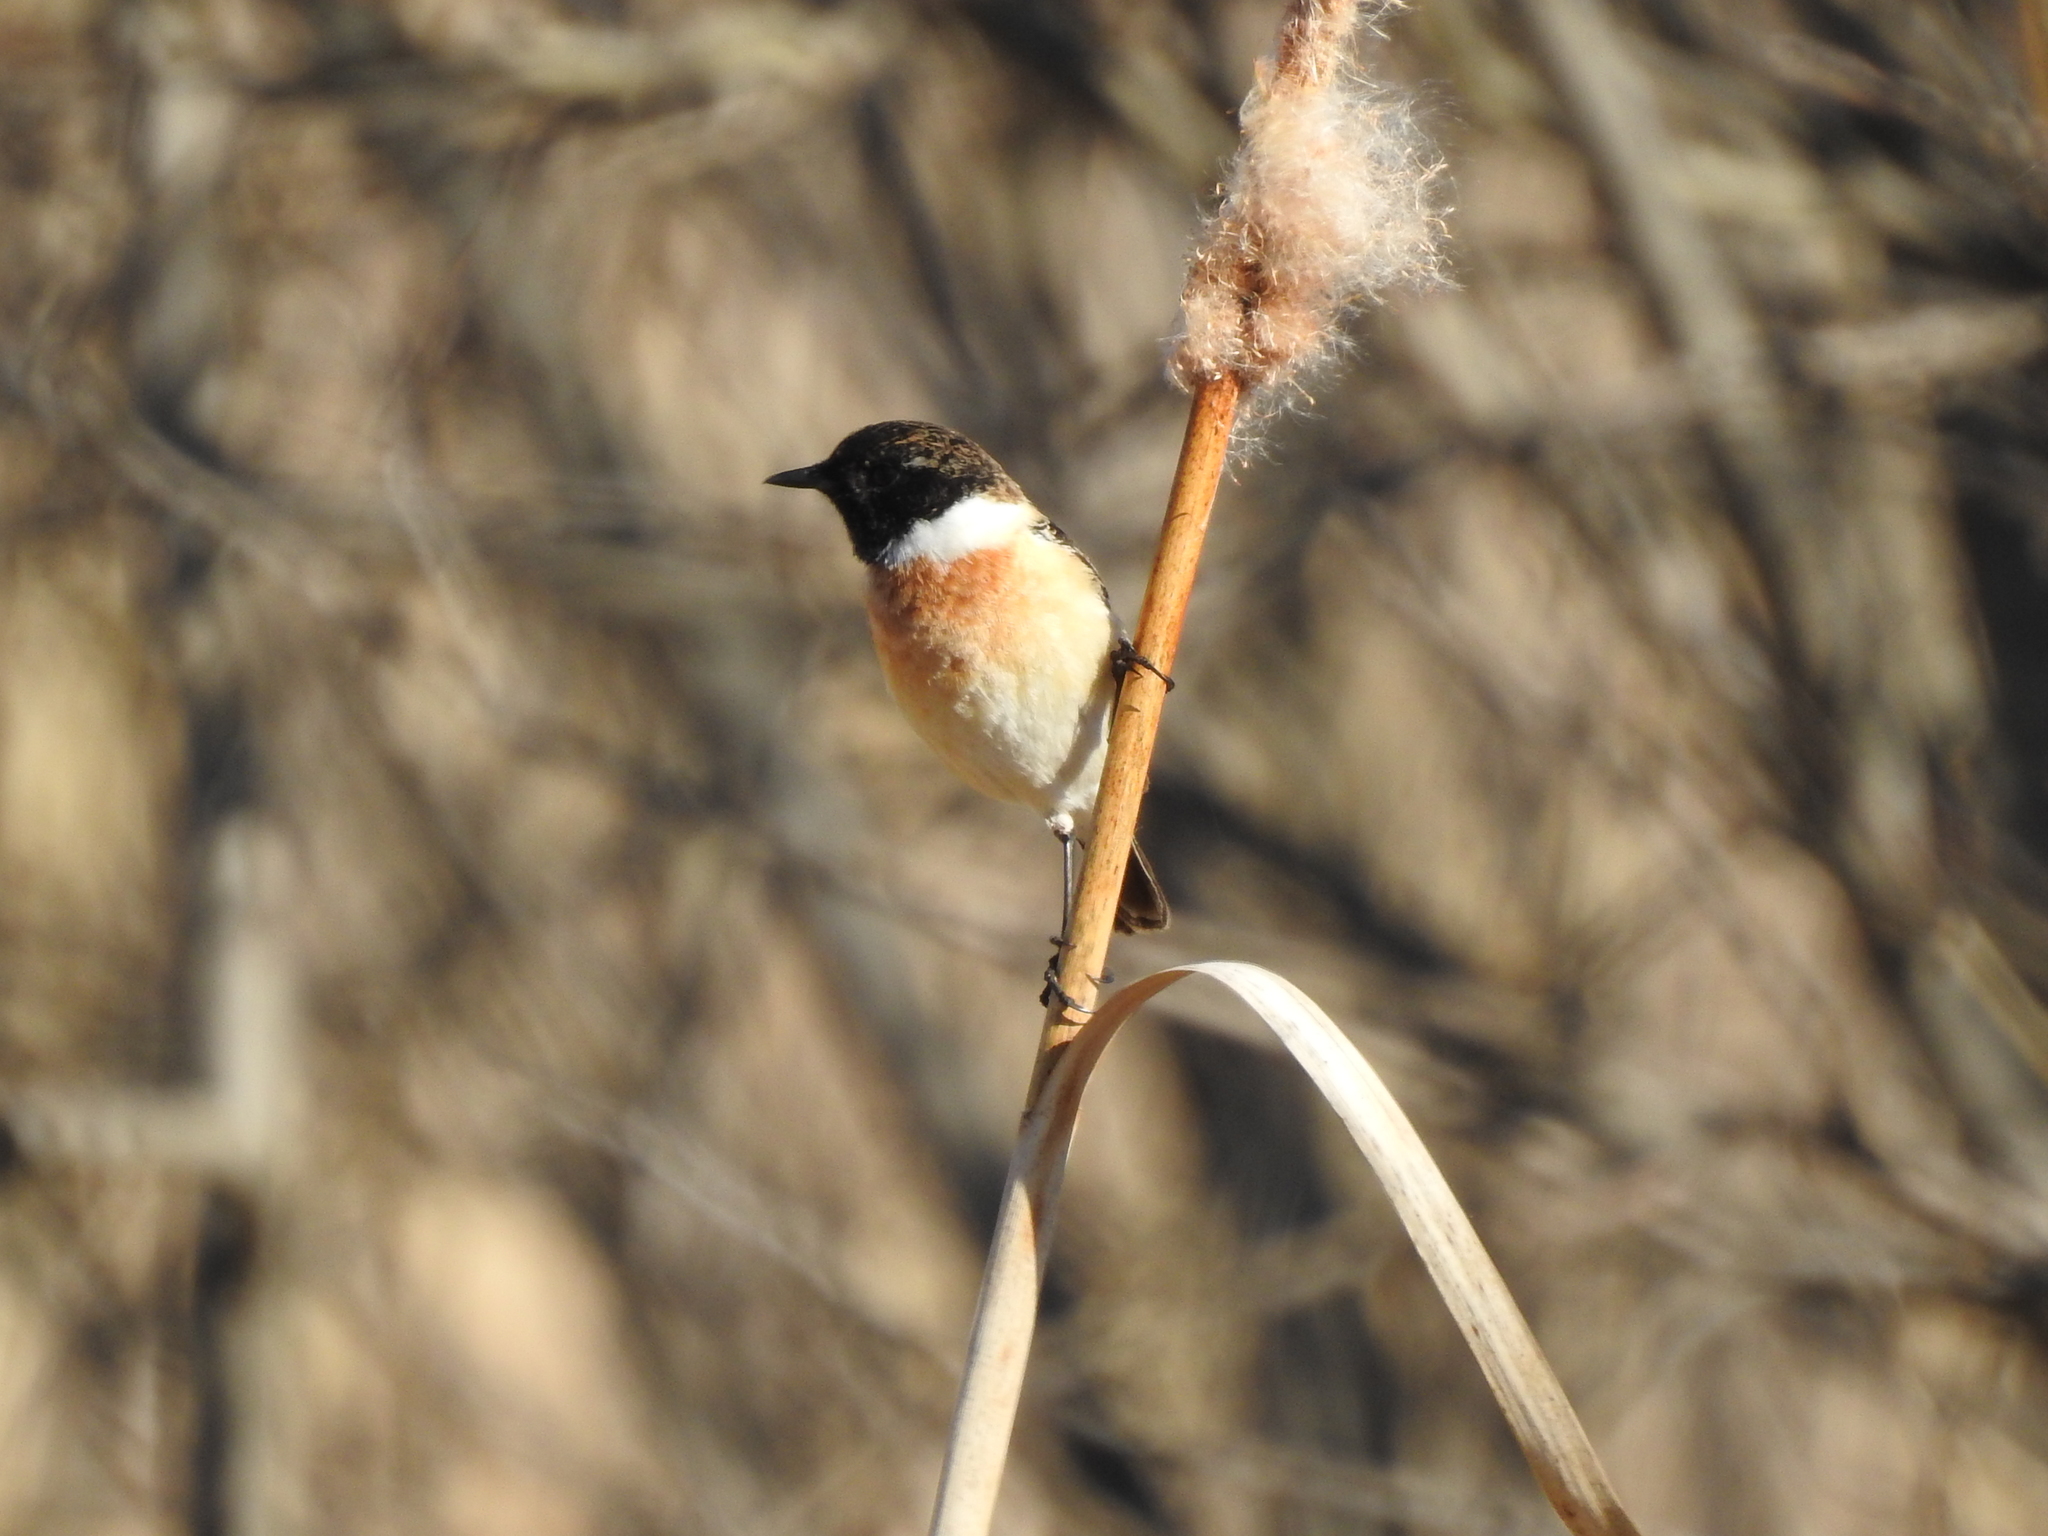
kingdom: Animalia
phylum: Chordata
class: Aves
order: Passeriformes
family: Muscicapidae
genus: Saxicola
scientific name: Saxicola maurus
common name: Siberian stonechat
